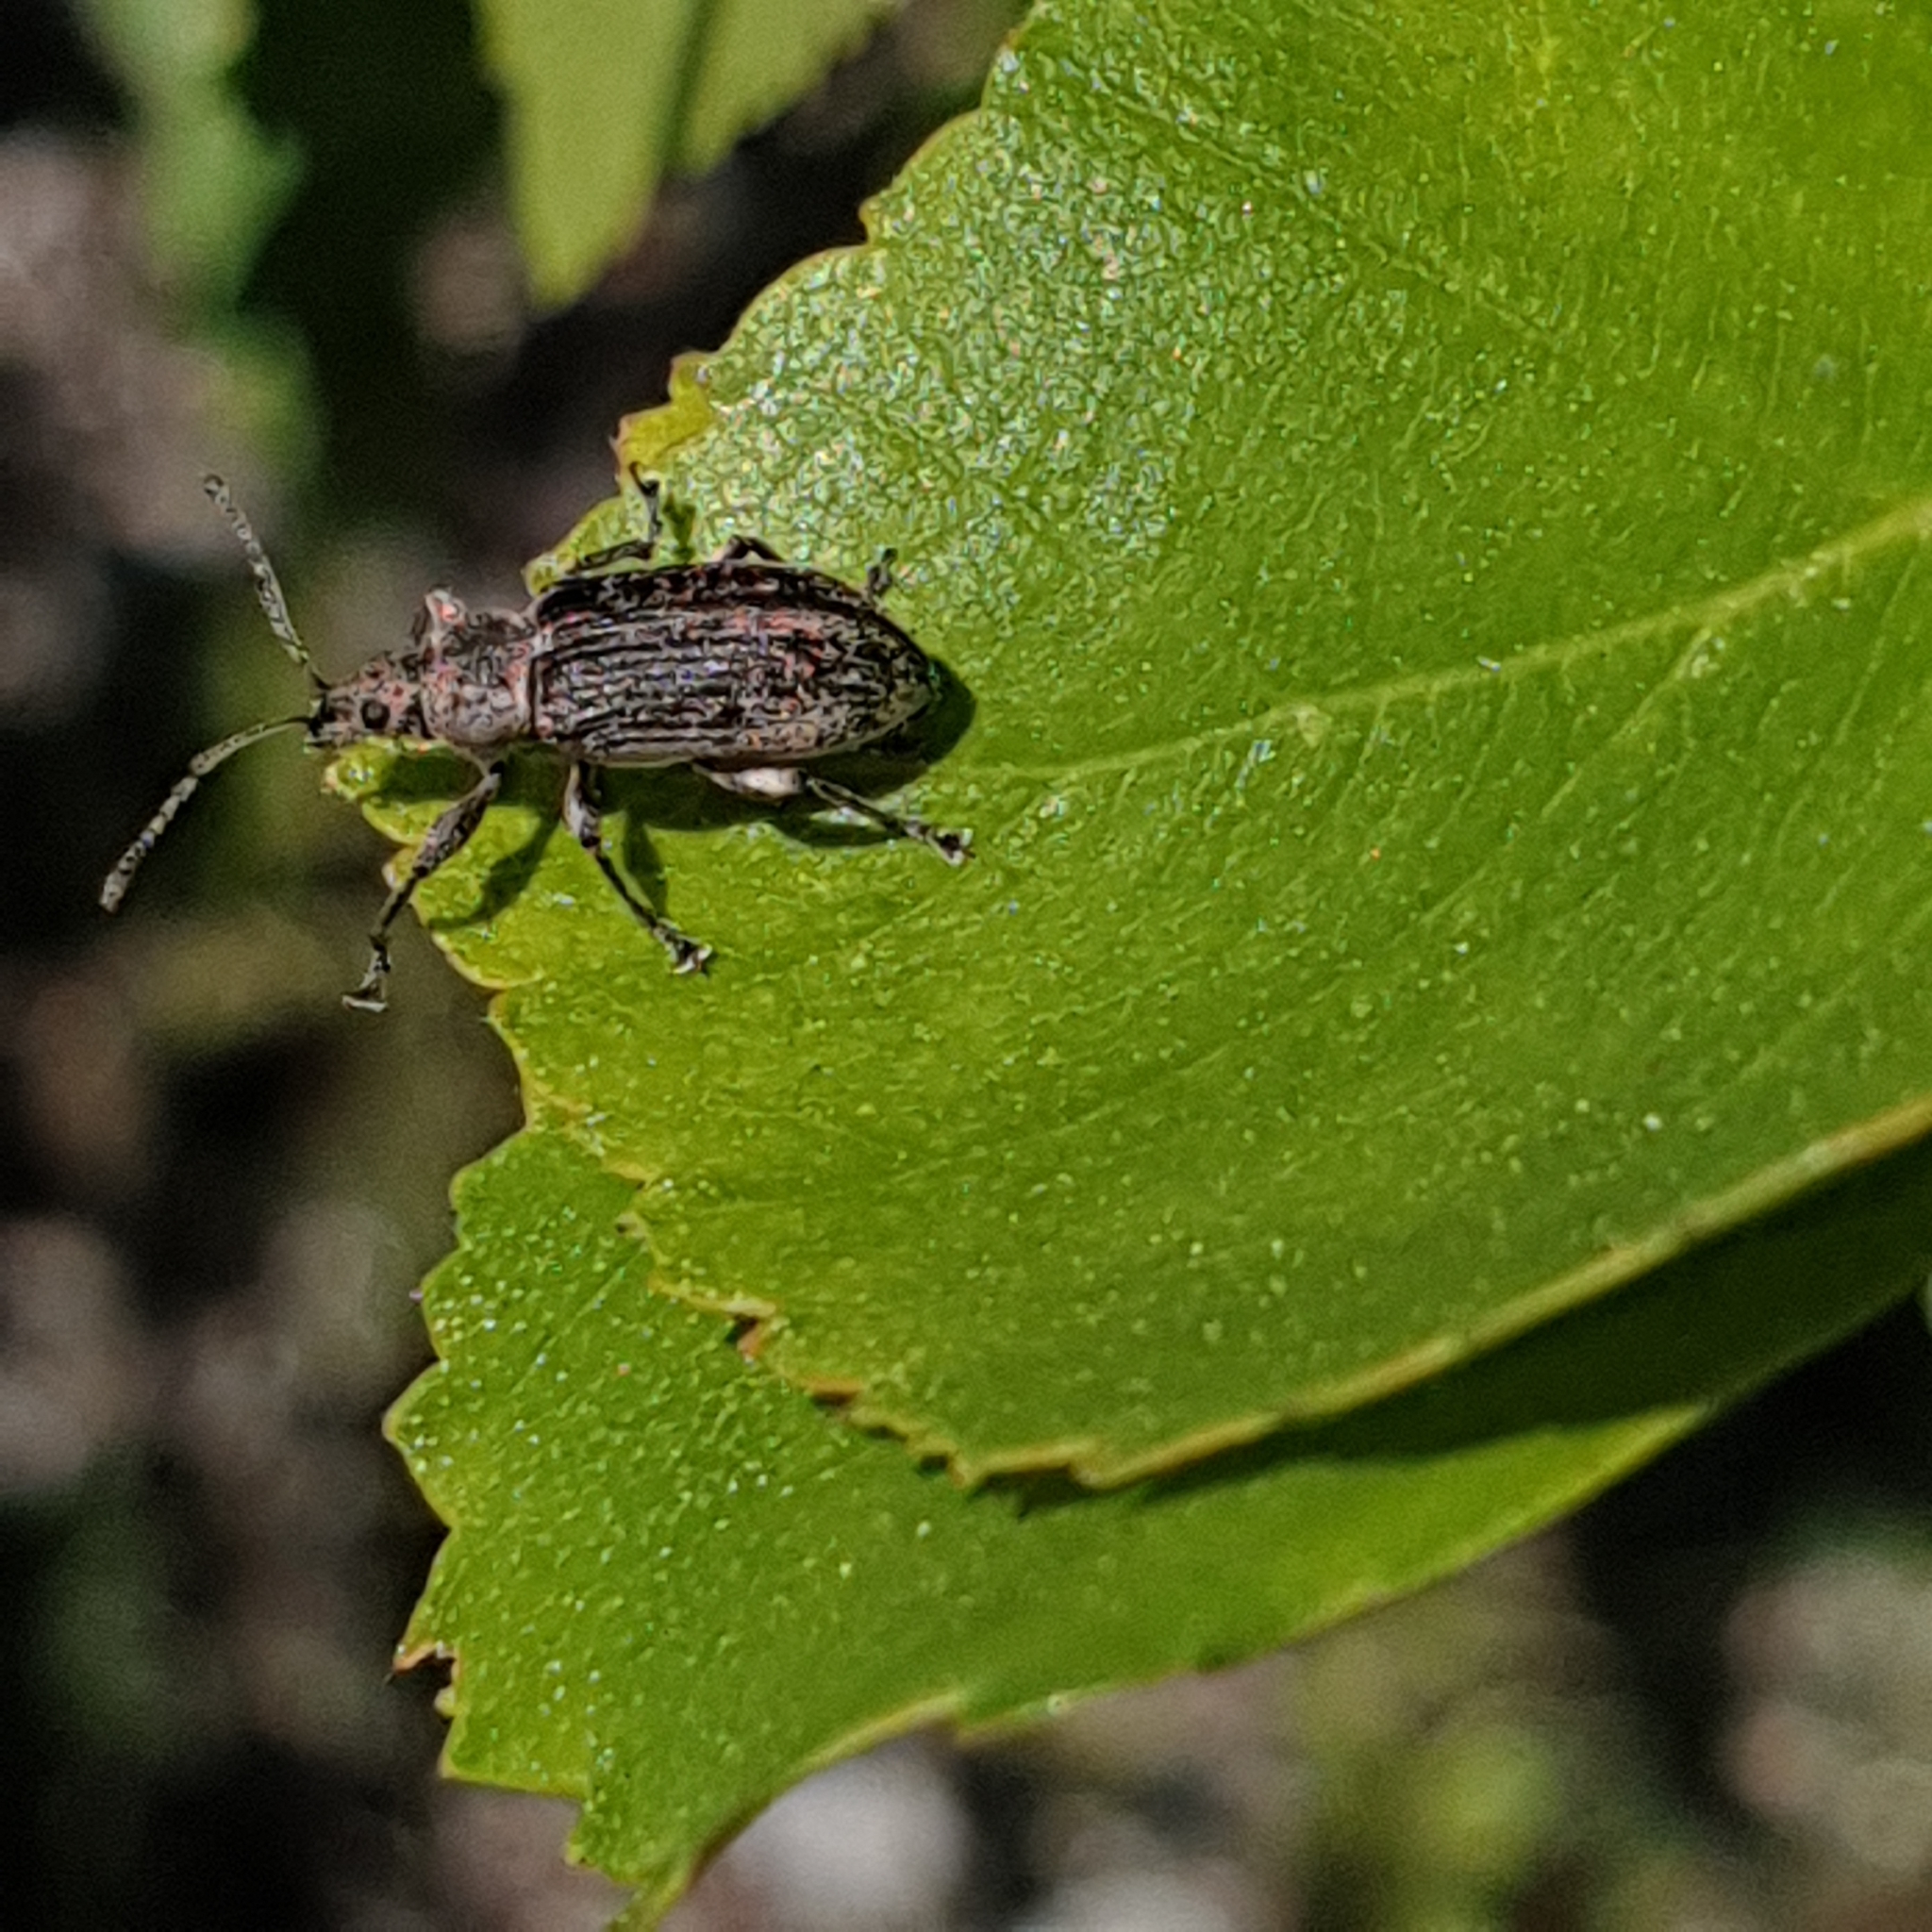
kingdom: Animalia
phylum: Arthropoda
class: Insecta
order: Coleoptera
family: Curculionidae
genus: Phyllobius
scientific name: Phyllobius pomaceus
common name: Green nettle weevil
